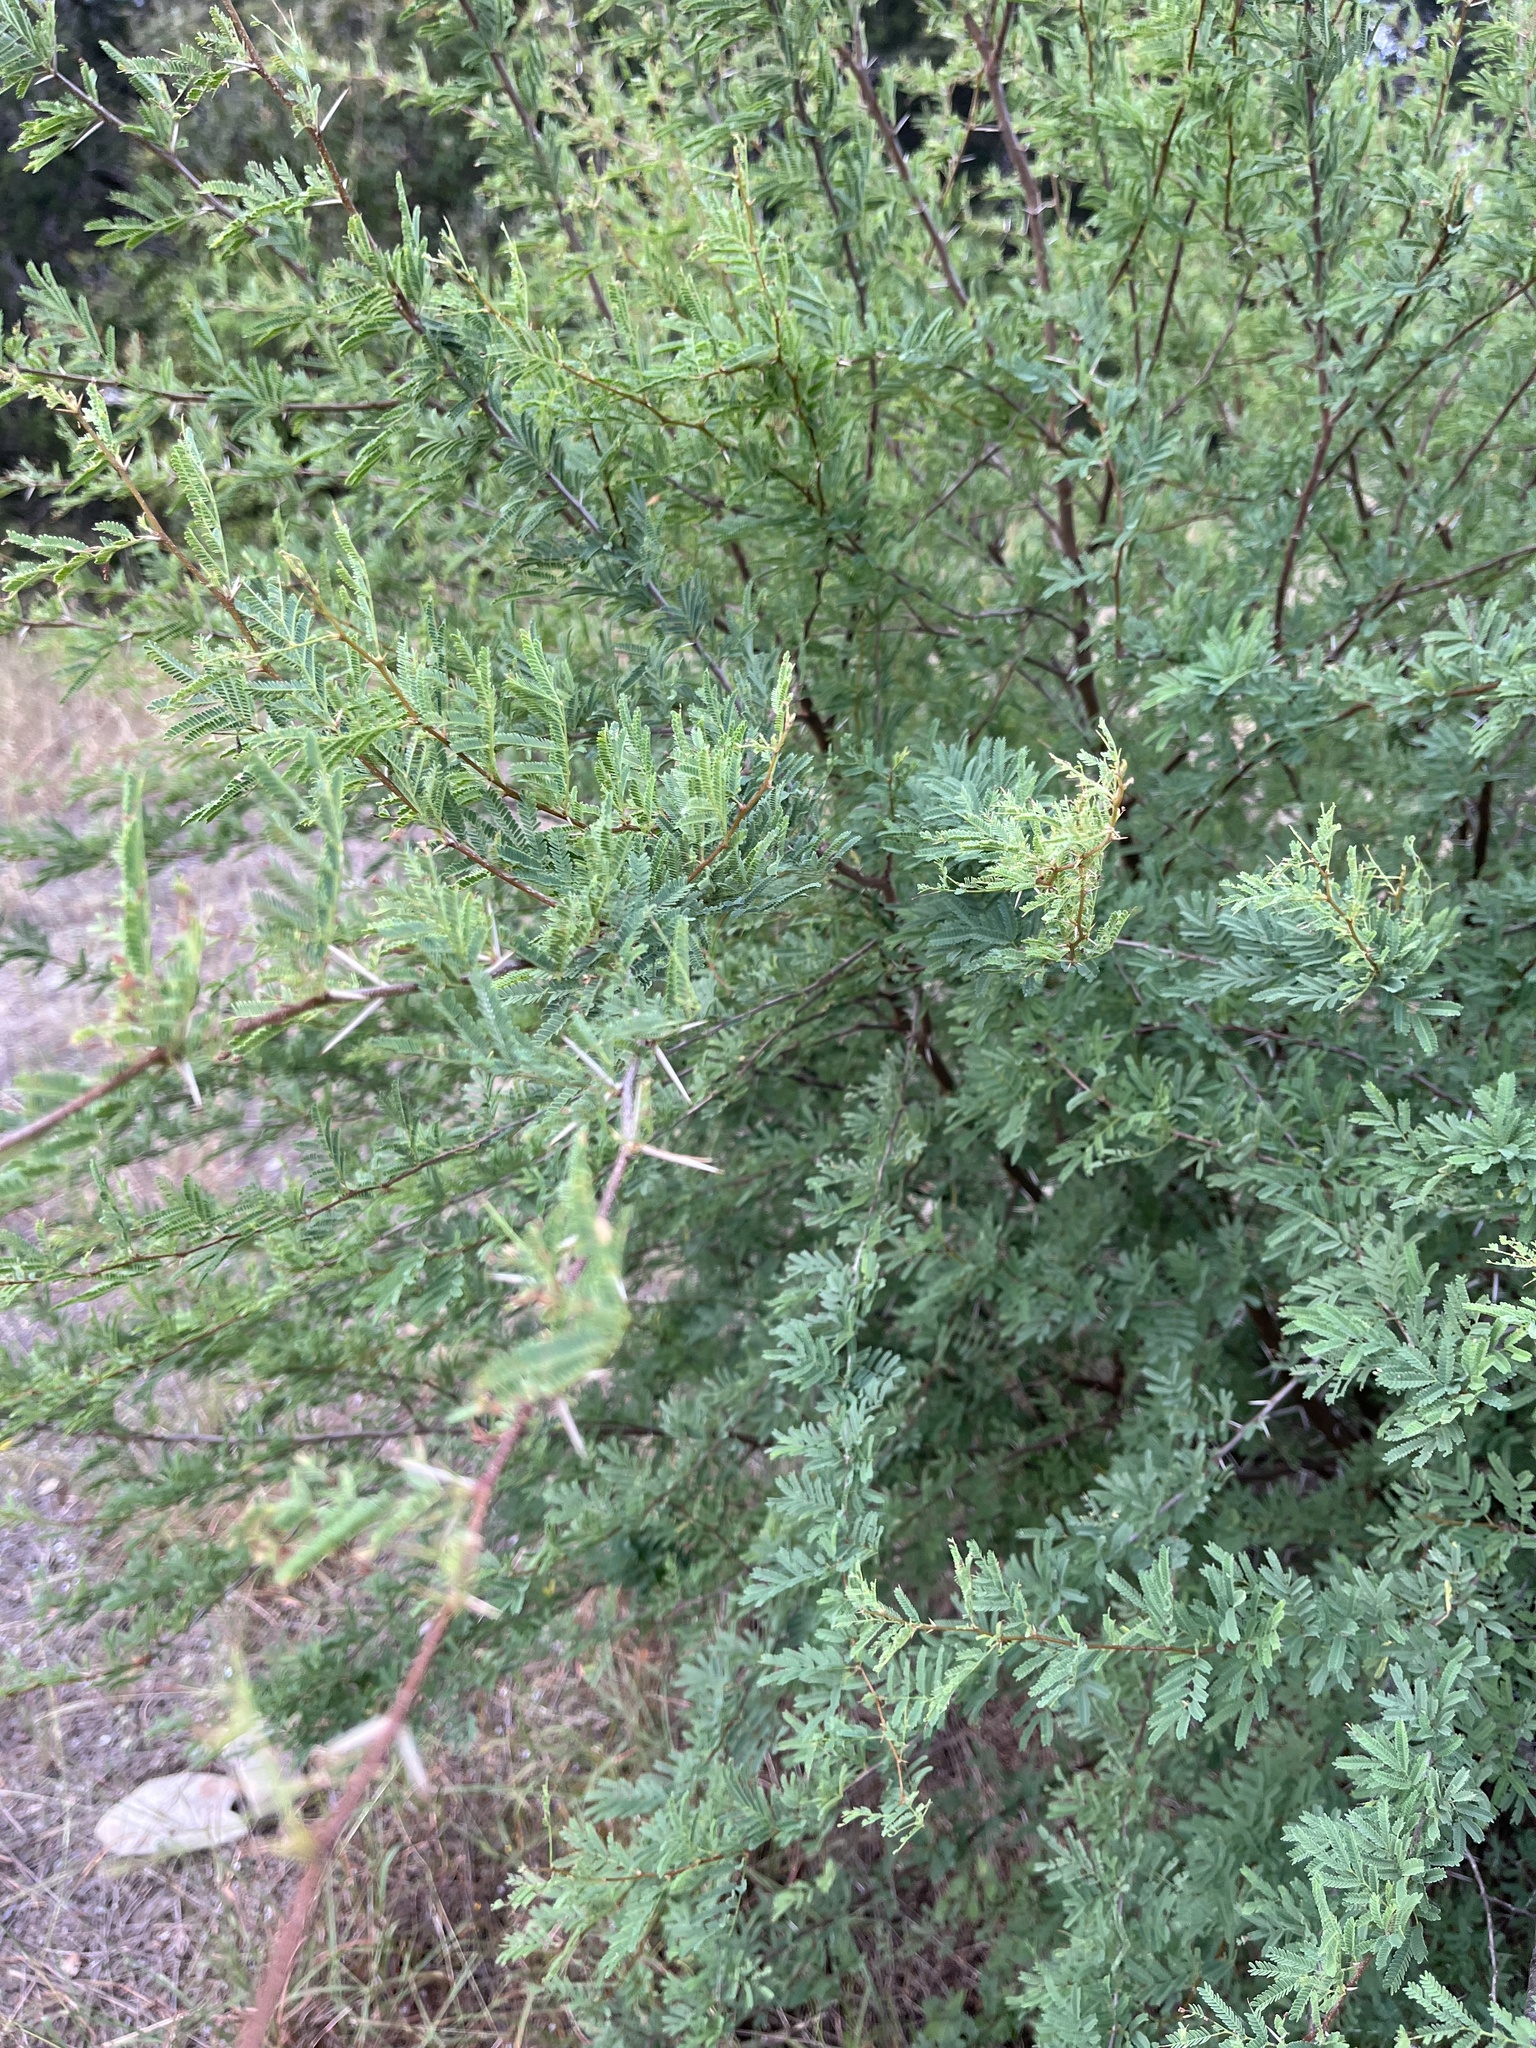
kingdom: Plantae
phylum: Tracheophyta
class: Magnoliopsida
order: Fabales
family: Fabaceae
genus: Vachellia
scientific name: Vachellia farnesiana
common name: Sweet acacia
